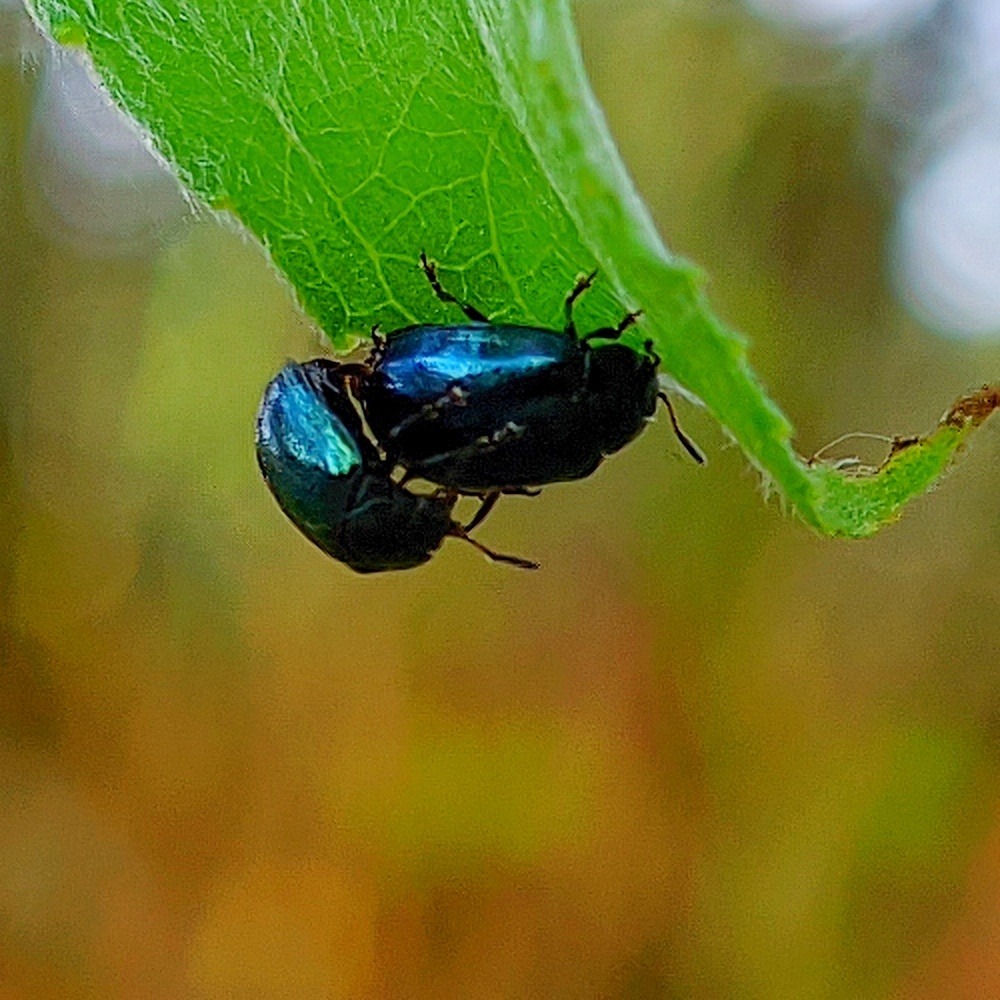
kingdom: Animalia
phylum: Arthropoda
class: Insecta
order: Coleoptera
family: Chrysomelidae
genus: Plagiodera
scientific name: Plagiodera versicolora
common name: Imported willow leaf beetle
